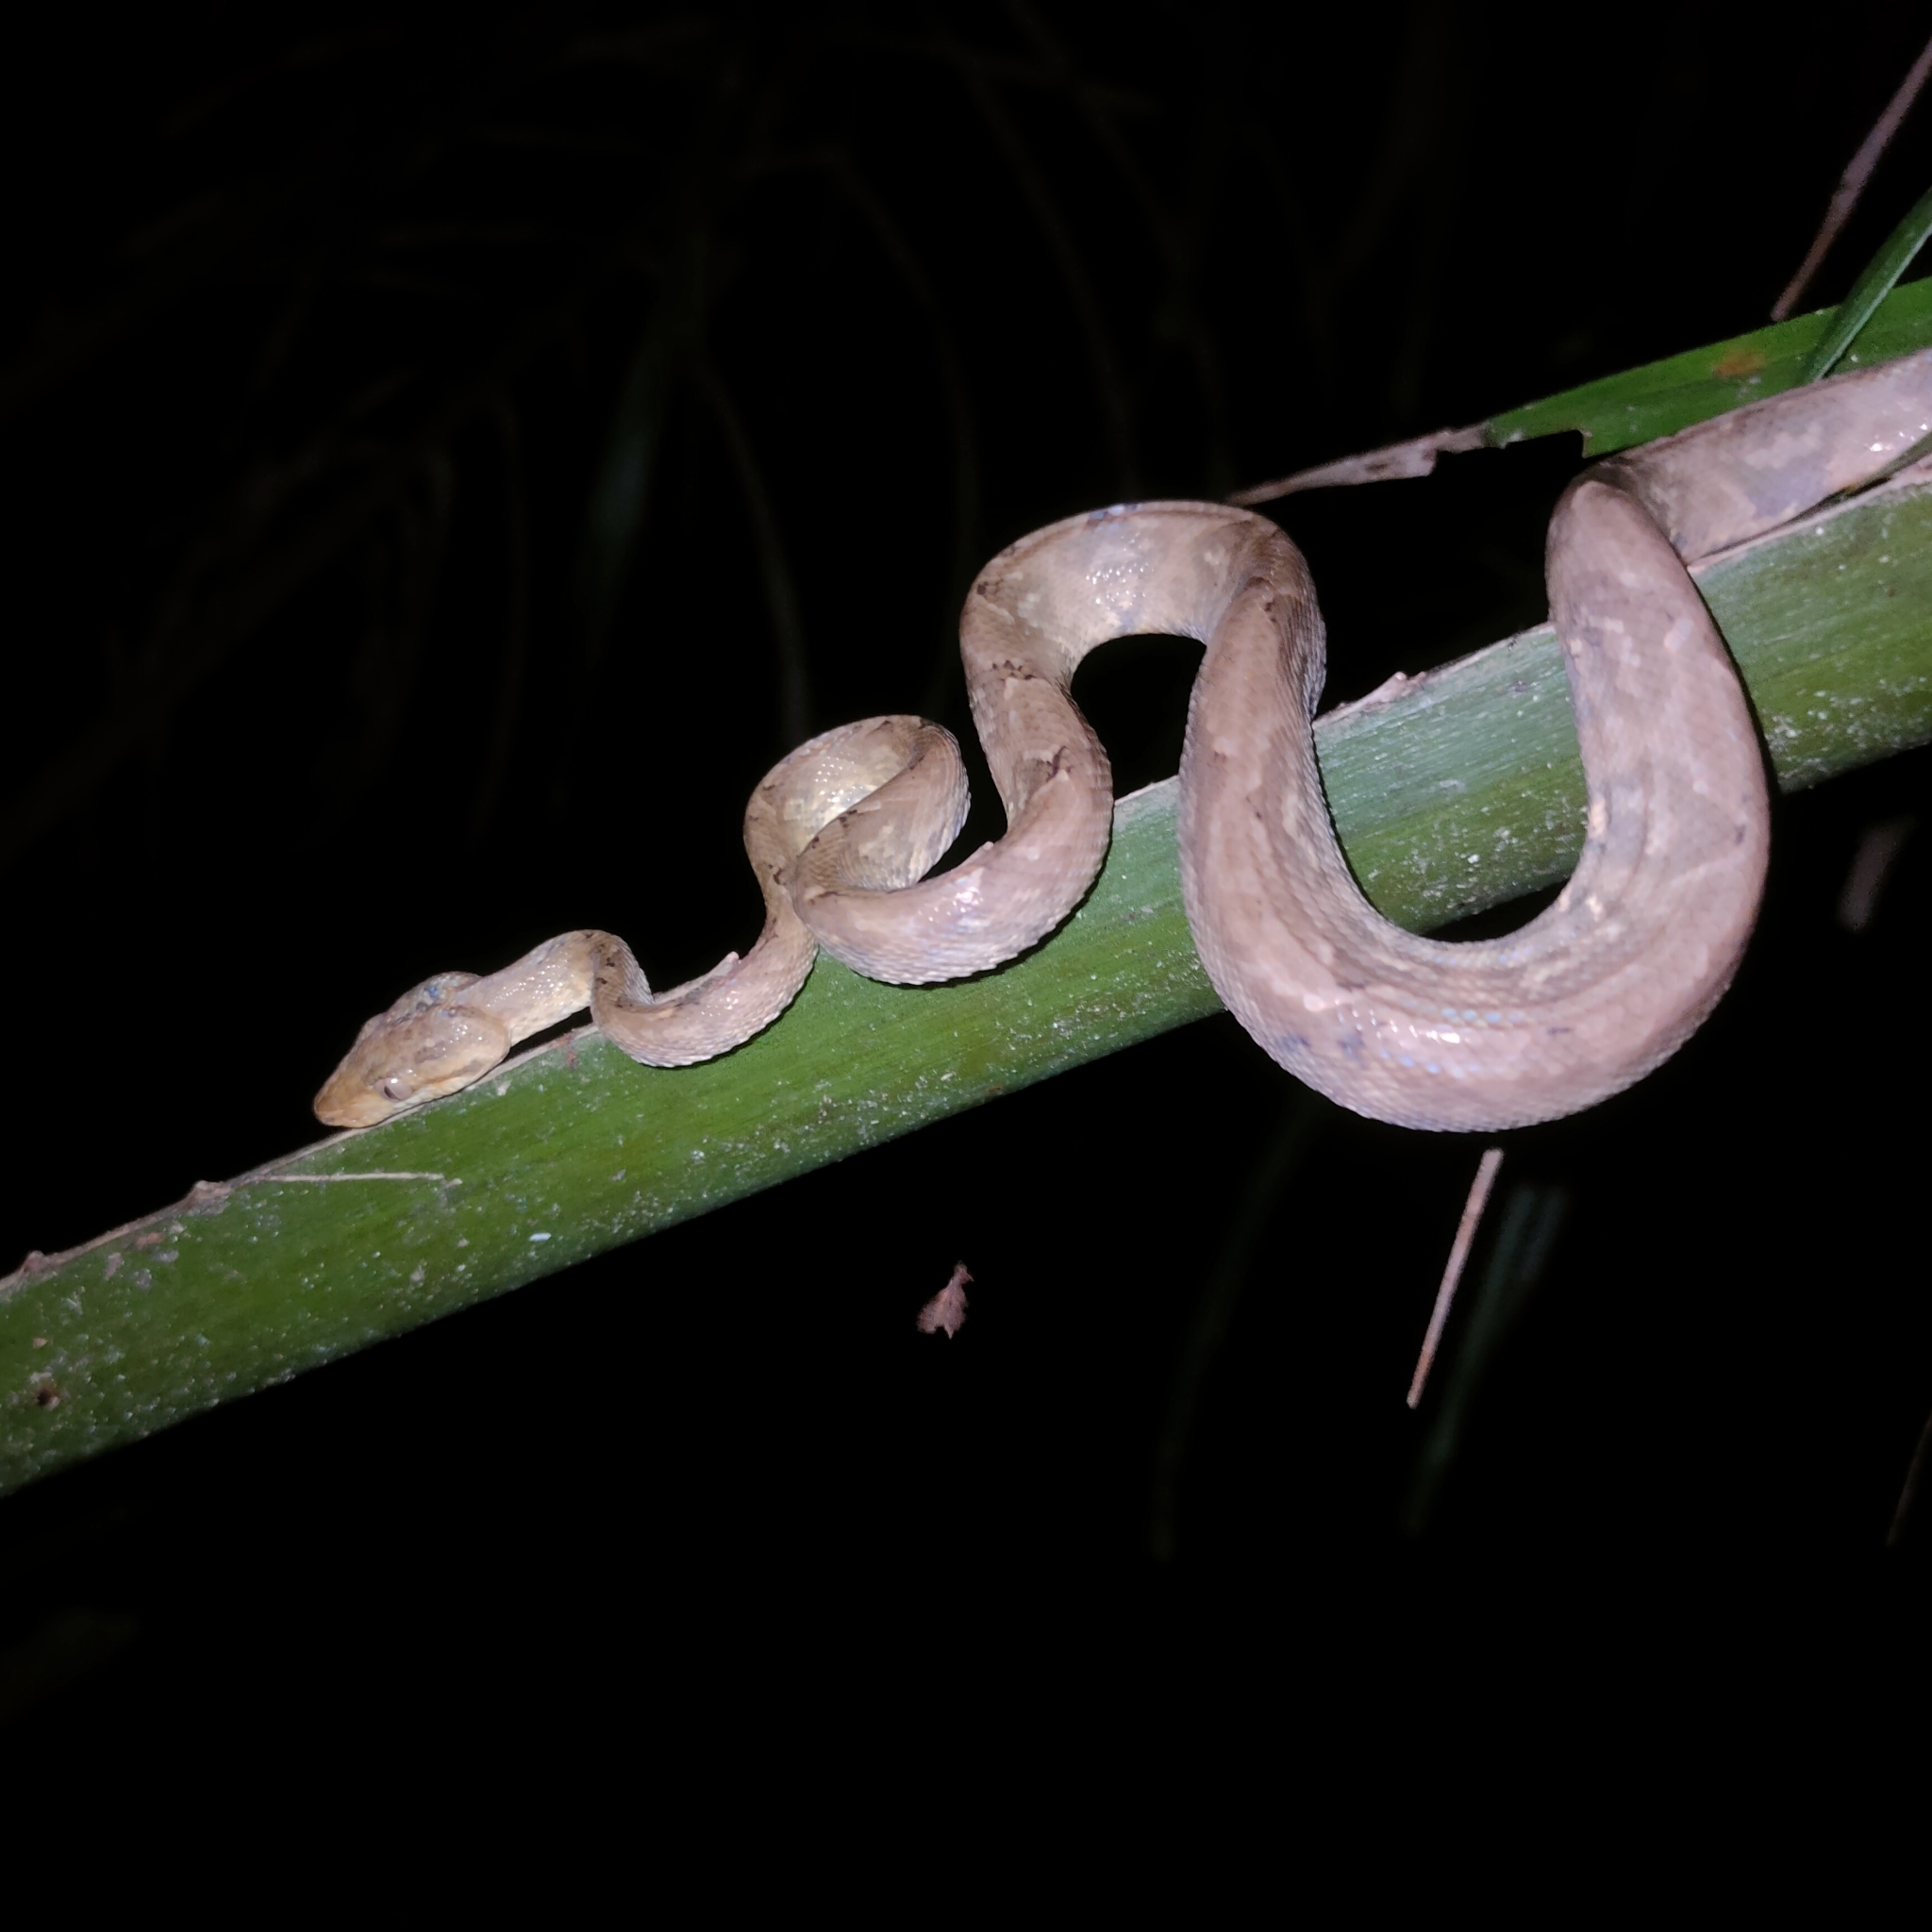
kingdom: Animalia
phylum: Chordata
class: Squamata
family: Boidae
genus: Corallus
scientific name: Corallus ruschenbergerii
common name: Dormilona
